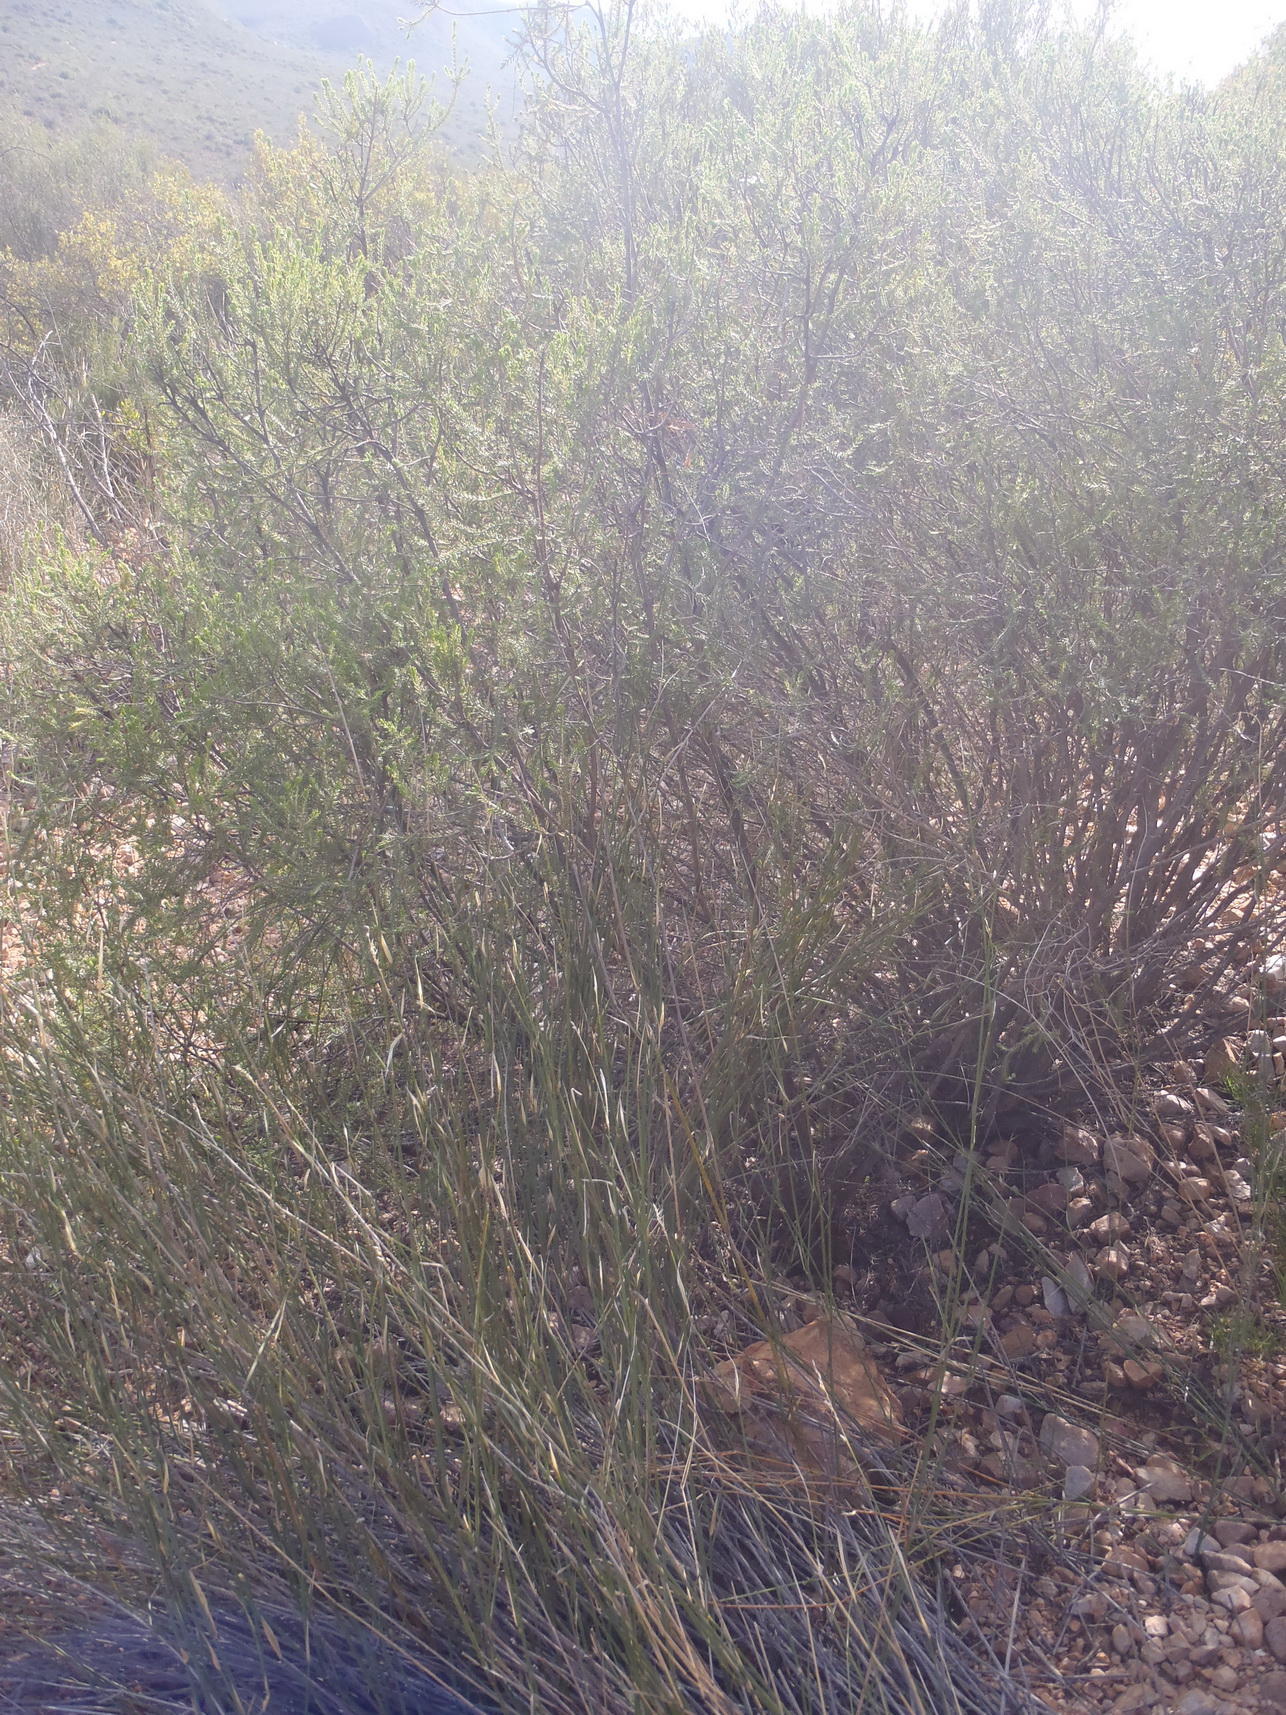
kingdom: Plantae
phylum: Tracheophyta
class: Magnoliopsida
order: Malvales
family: Thymelaeaceae
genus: Passerina
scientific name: Passerina obtusifolia
